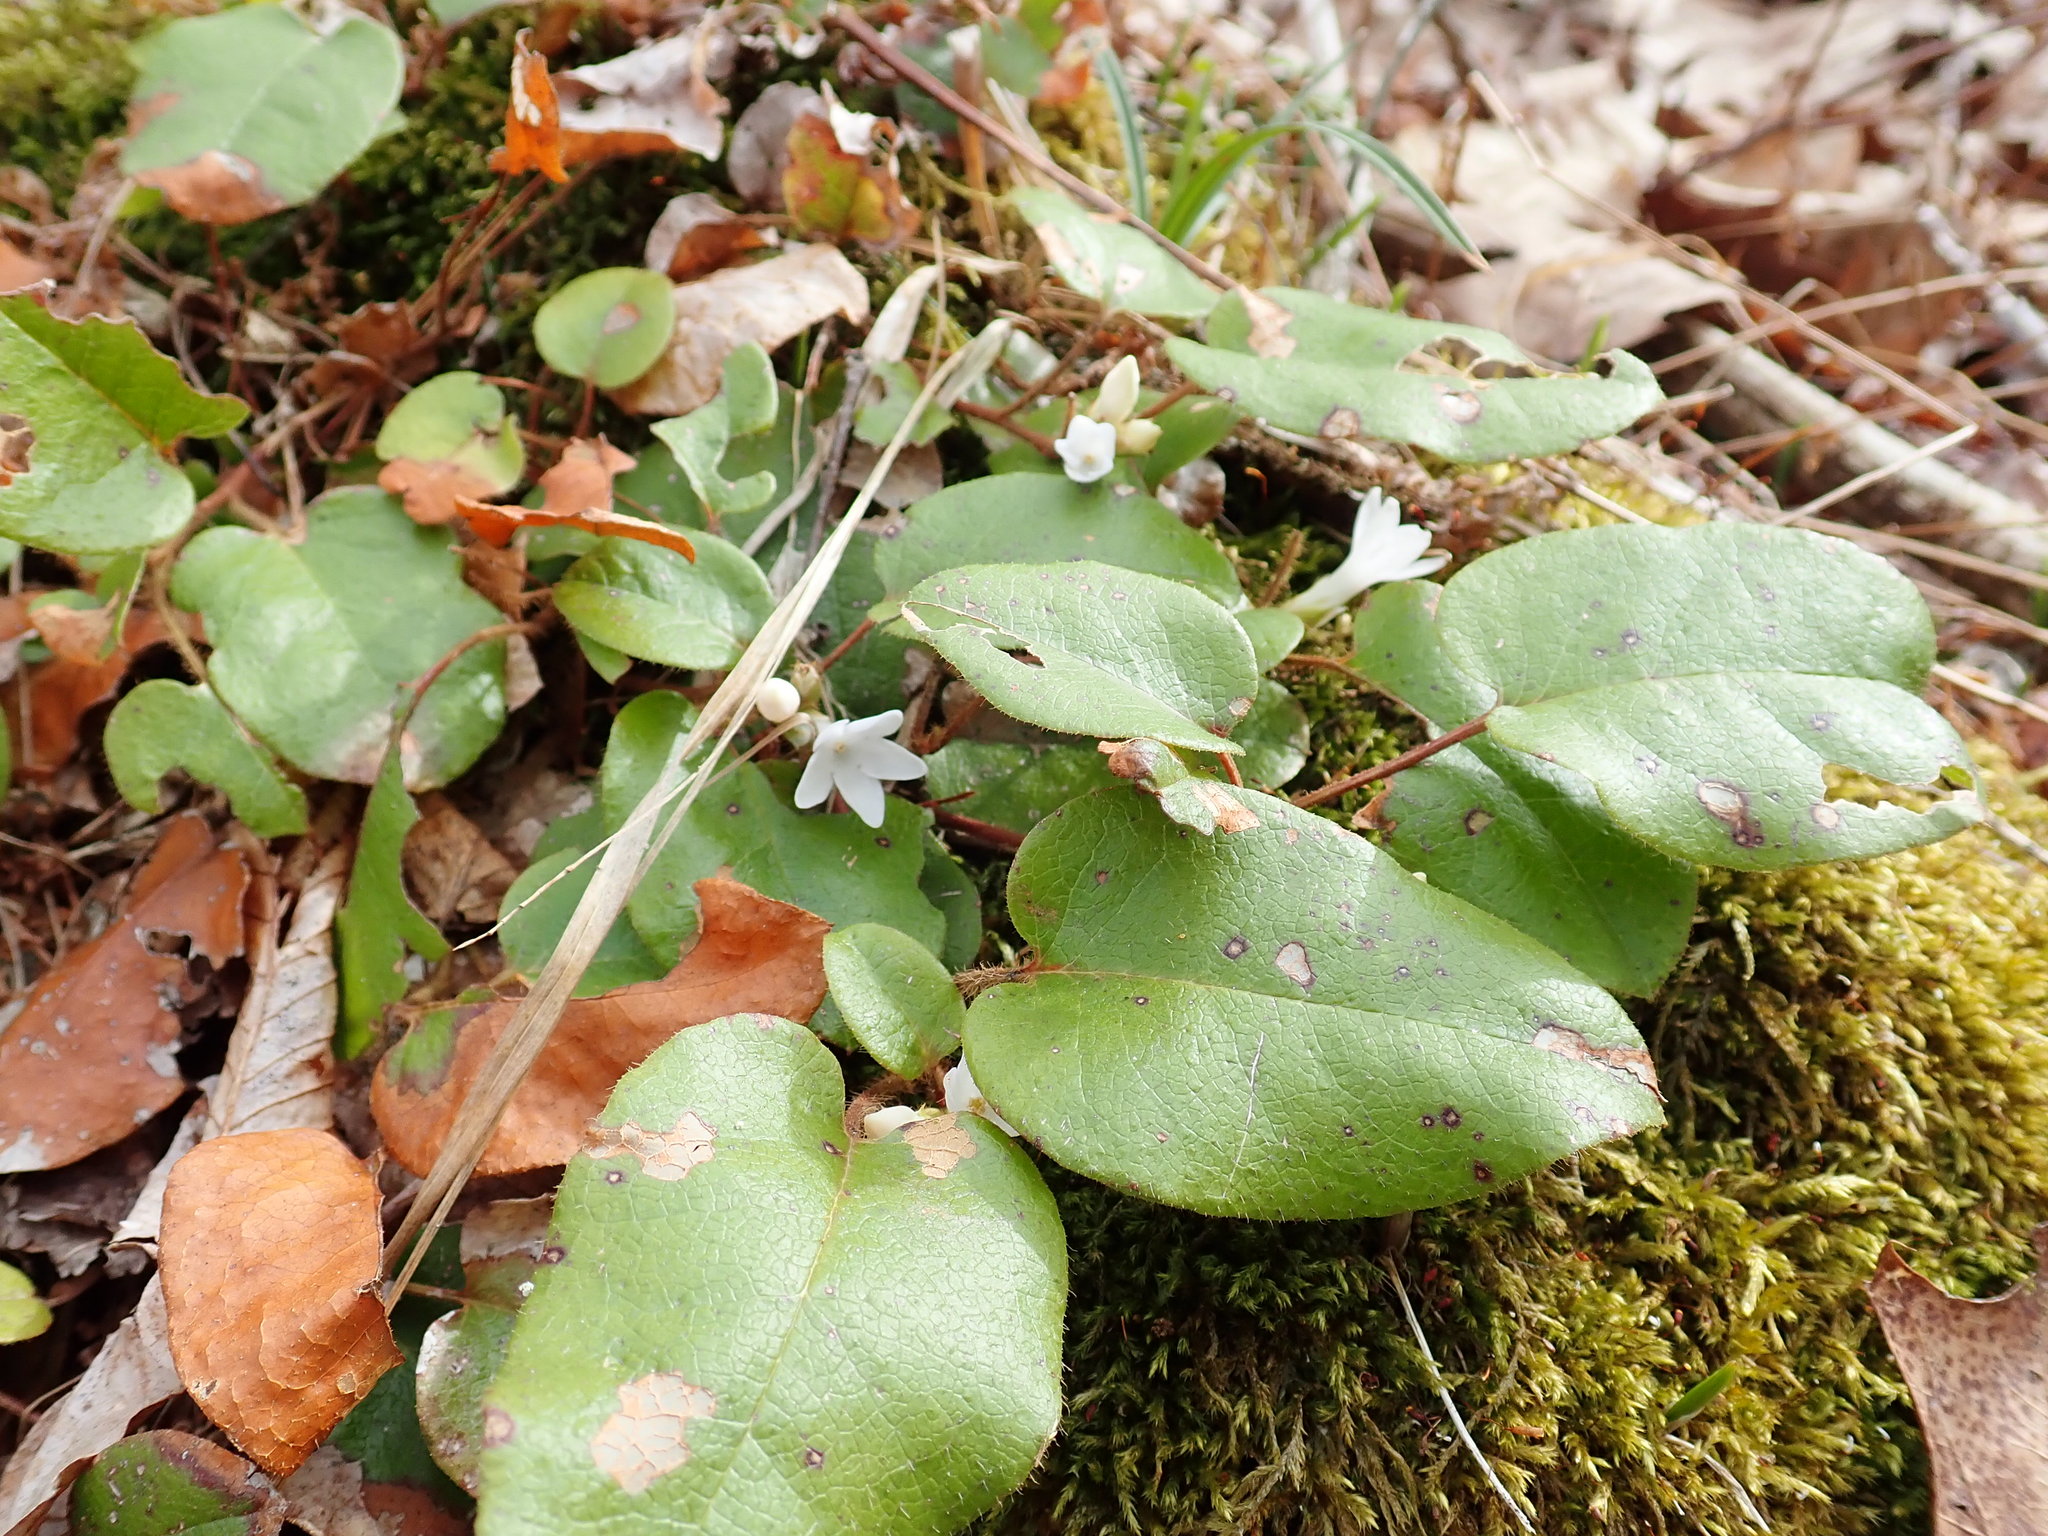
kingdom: Plantae
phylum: Tracheophyta
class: Magnoliopsida
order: Ericales
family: Ericaceae
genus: Epigaea
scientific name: Epigaea repens
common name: Gravelroot
